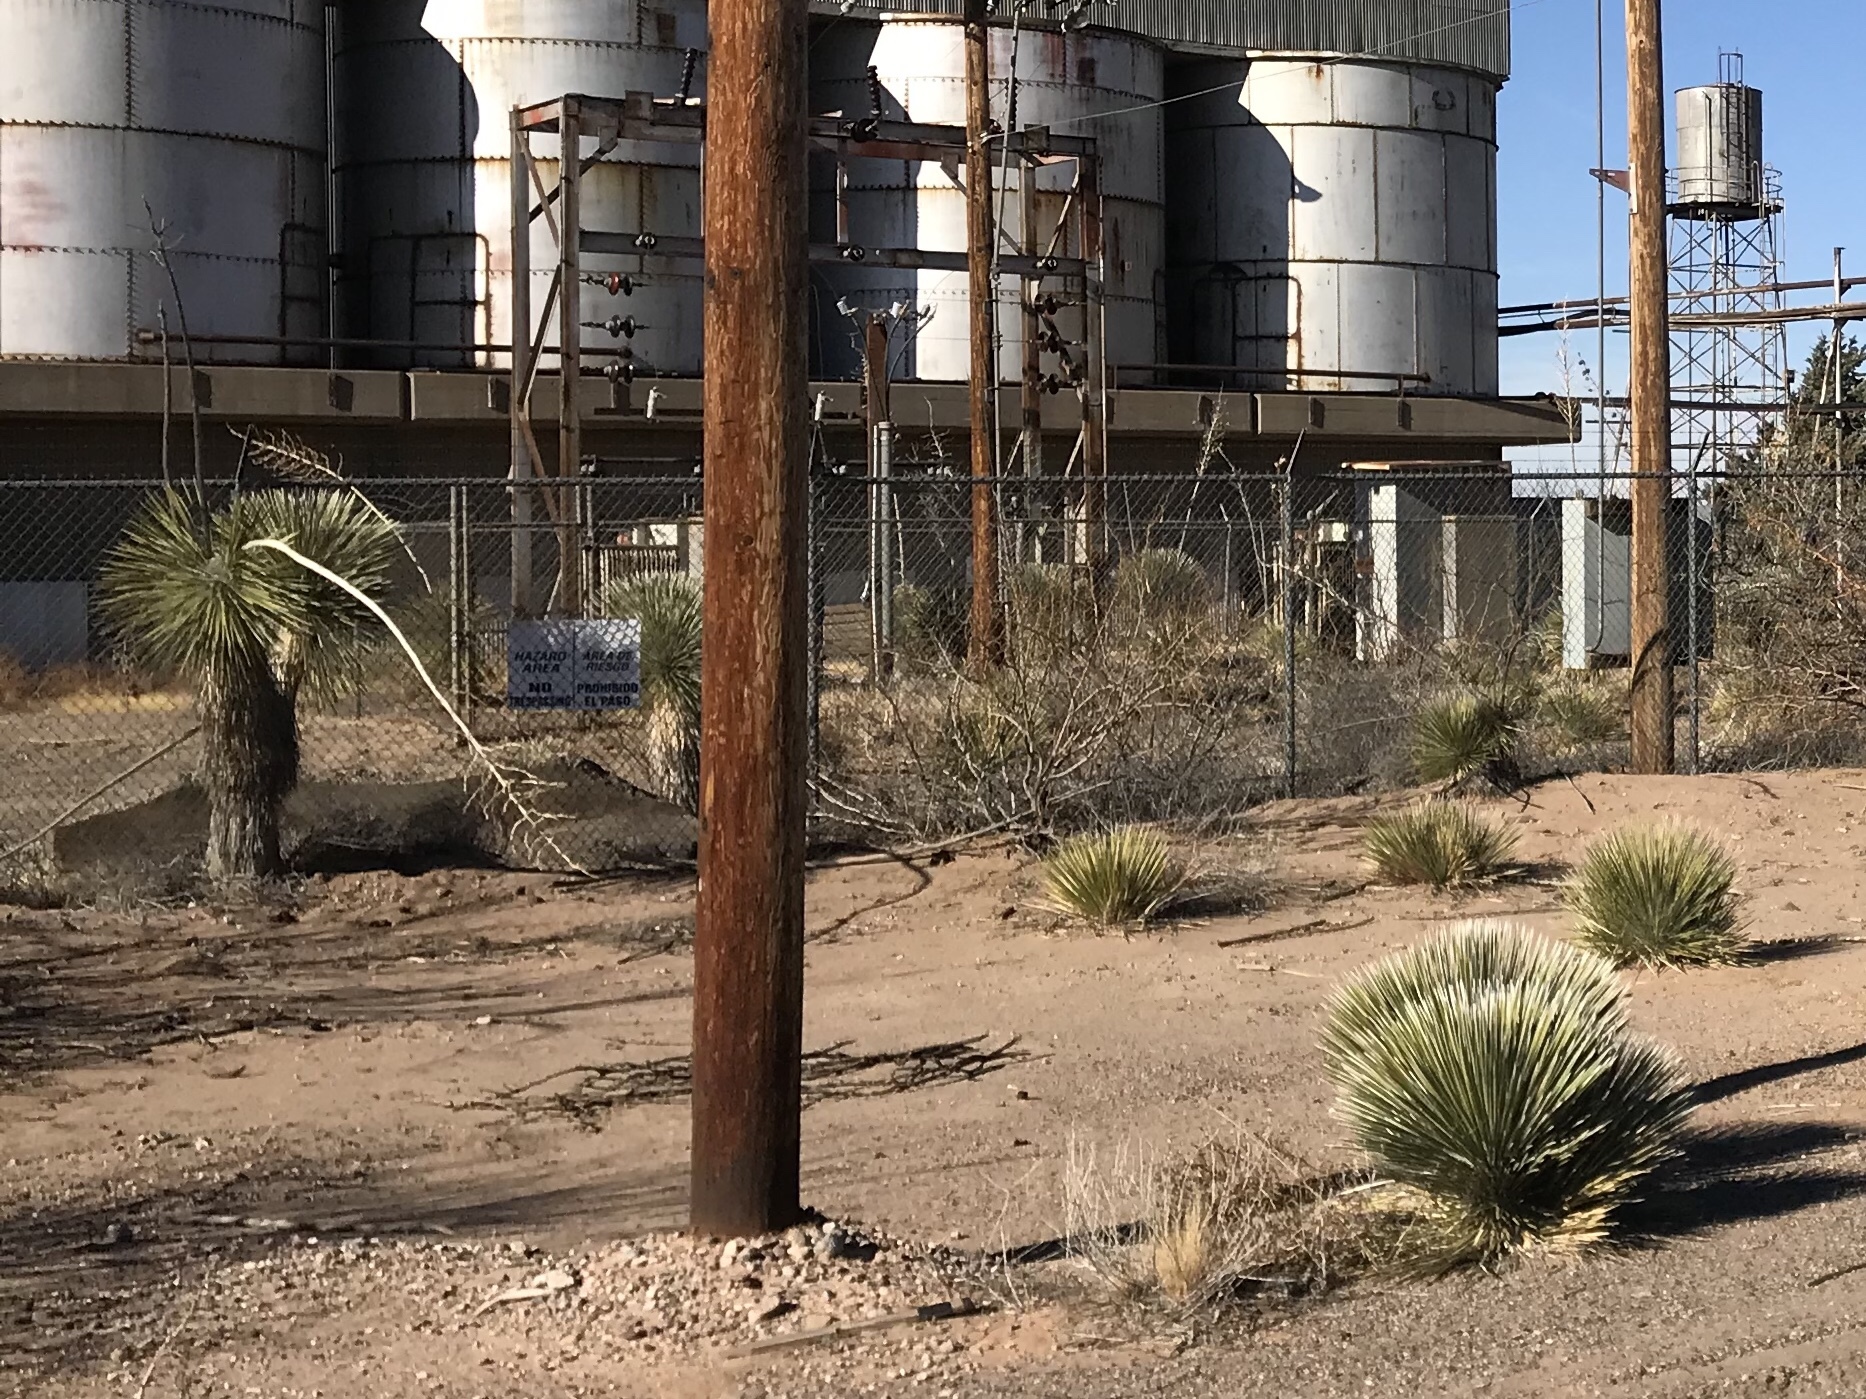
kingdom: Plantae
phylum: Tracheophyta
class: Liliopsida
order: Asparagales
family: Asparagaceae
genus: Yucca
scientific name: Yucca elata
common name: Palmella
